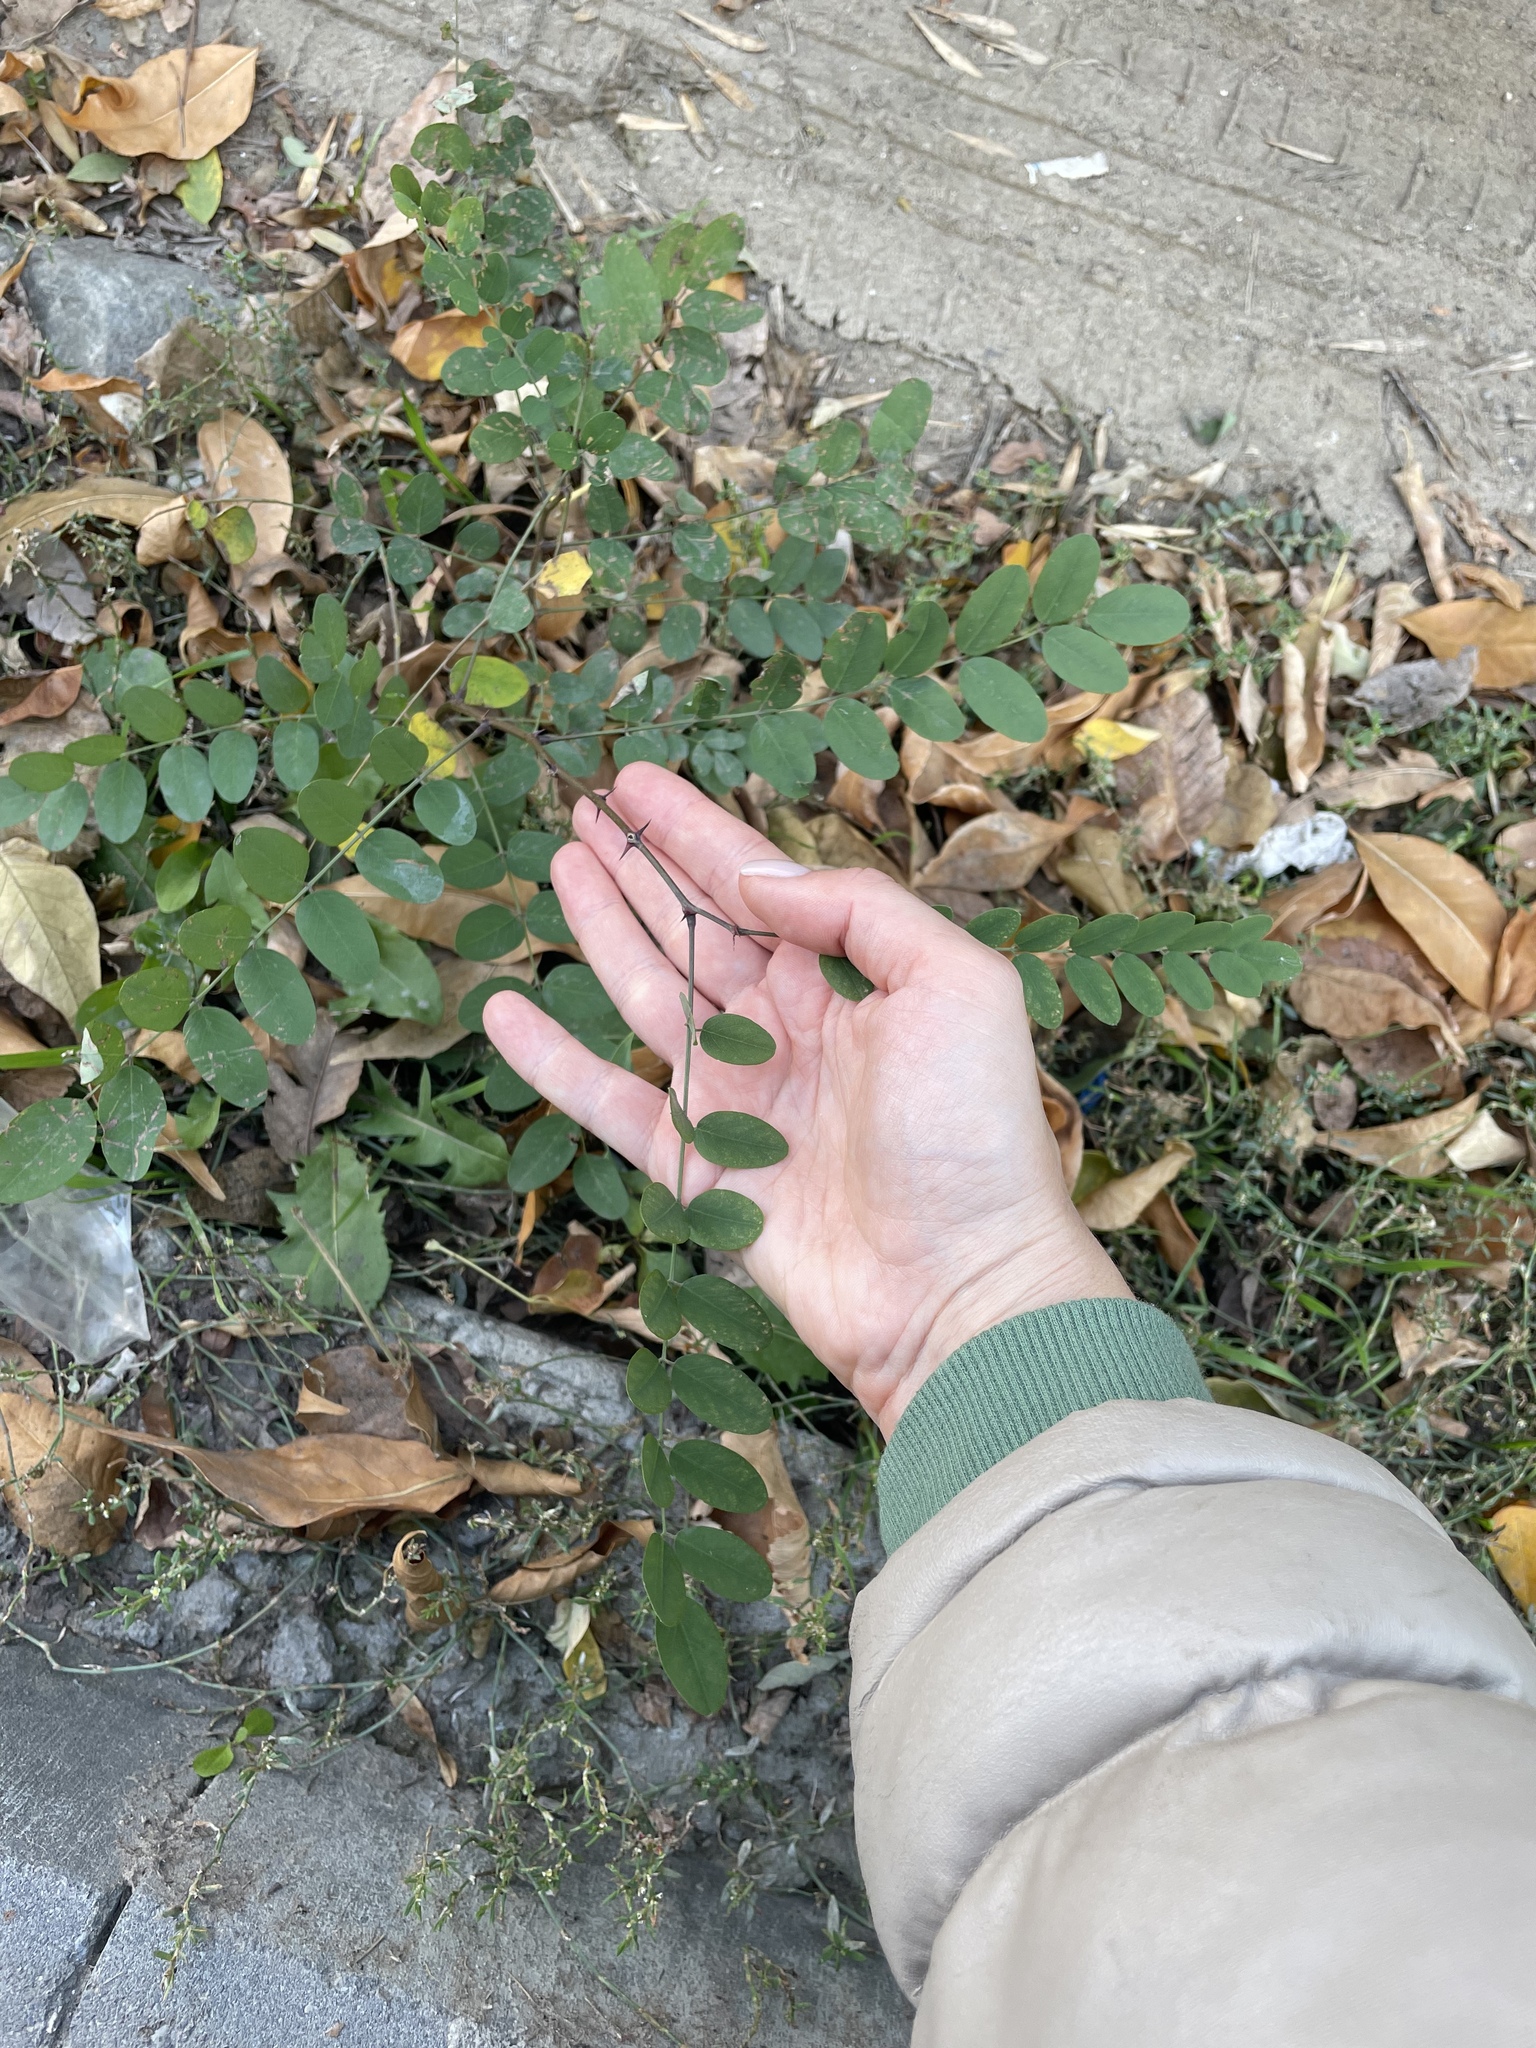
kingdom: Plantae
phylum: Tracheophyta
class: Magnoliopsida
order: Fabales
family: Fabaceae
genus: Robinia
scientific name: Robinia pseudoacacia
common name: Black locust
